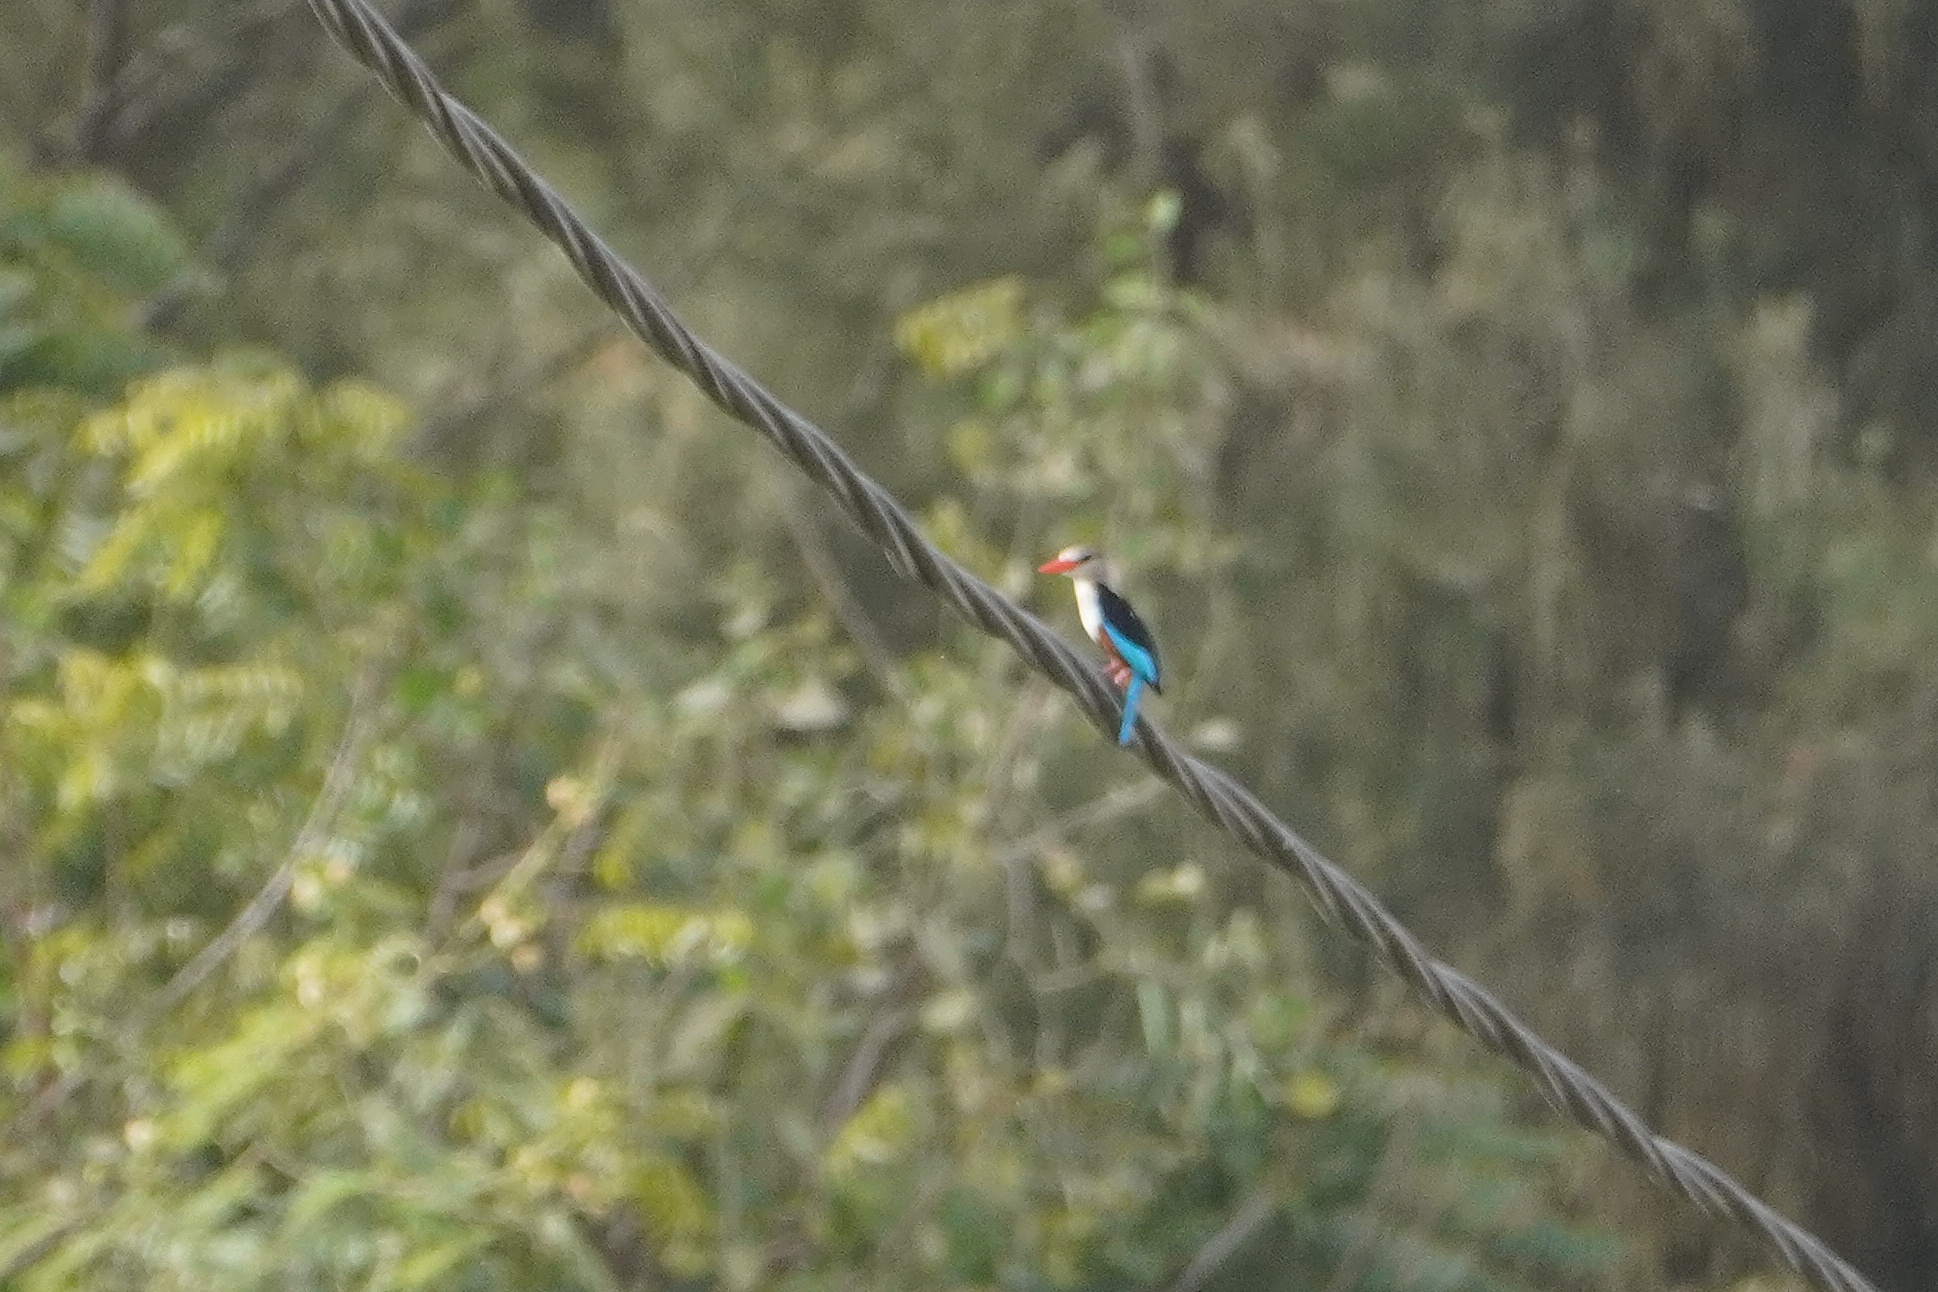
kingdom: Animalia
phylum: Chordata
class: Aves
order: Coraciiformes
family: Alcedinidae
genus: Halcyon
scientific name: Halcyon leucocephala
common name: Grey-headed kingfisher
